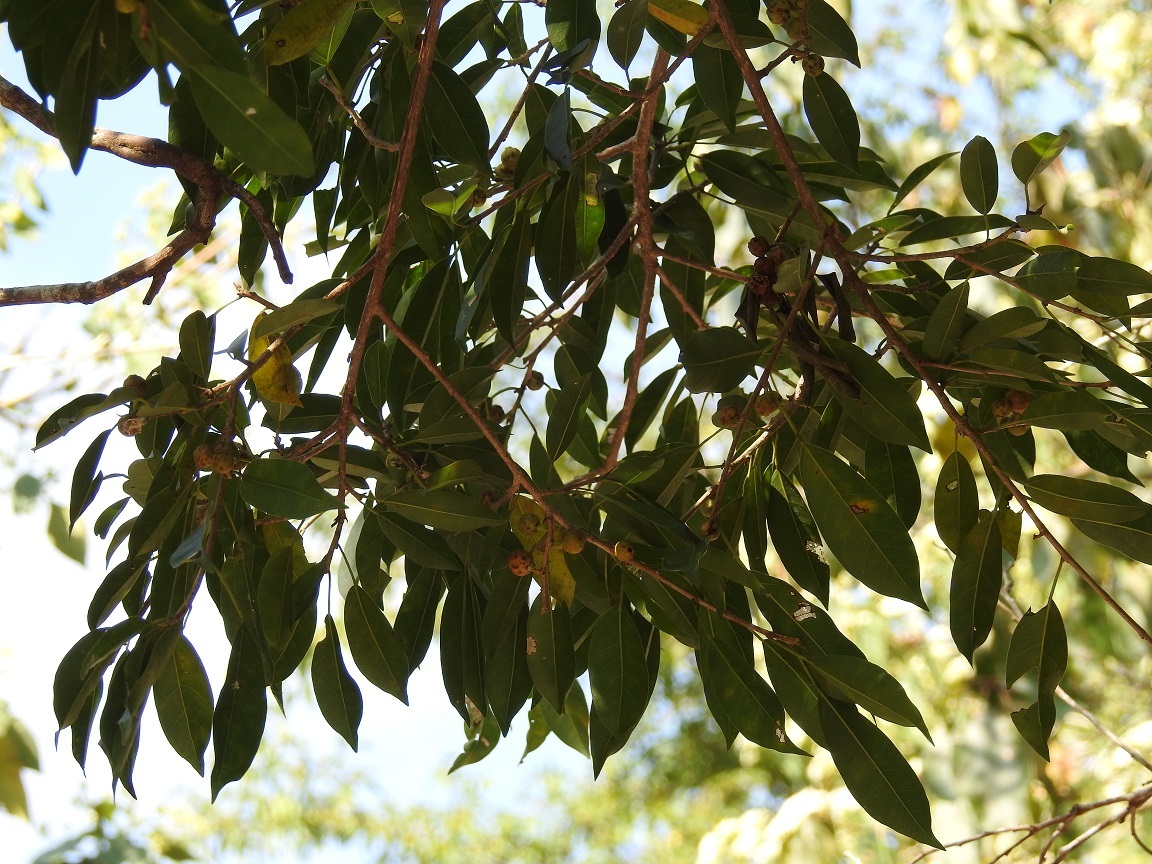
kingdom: Plantae
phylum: Tracheophyta
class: Magnoliopsida
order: Rosales
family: Moraceae
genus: Ficus
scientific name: Ficus pertusa
